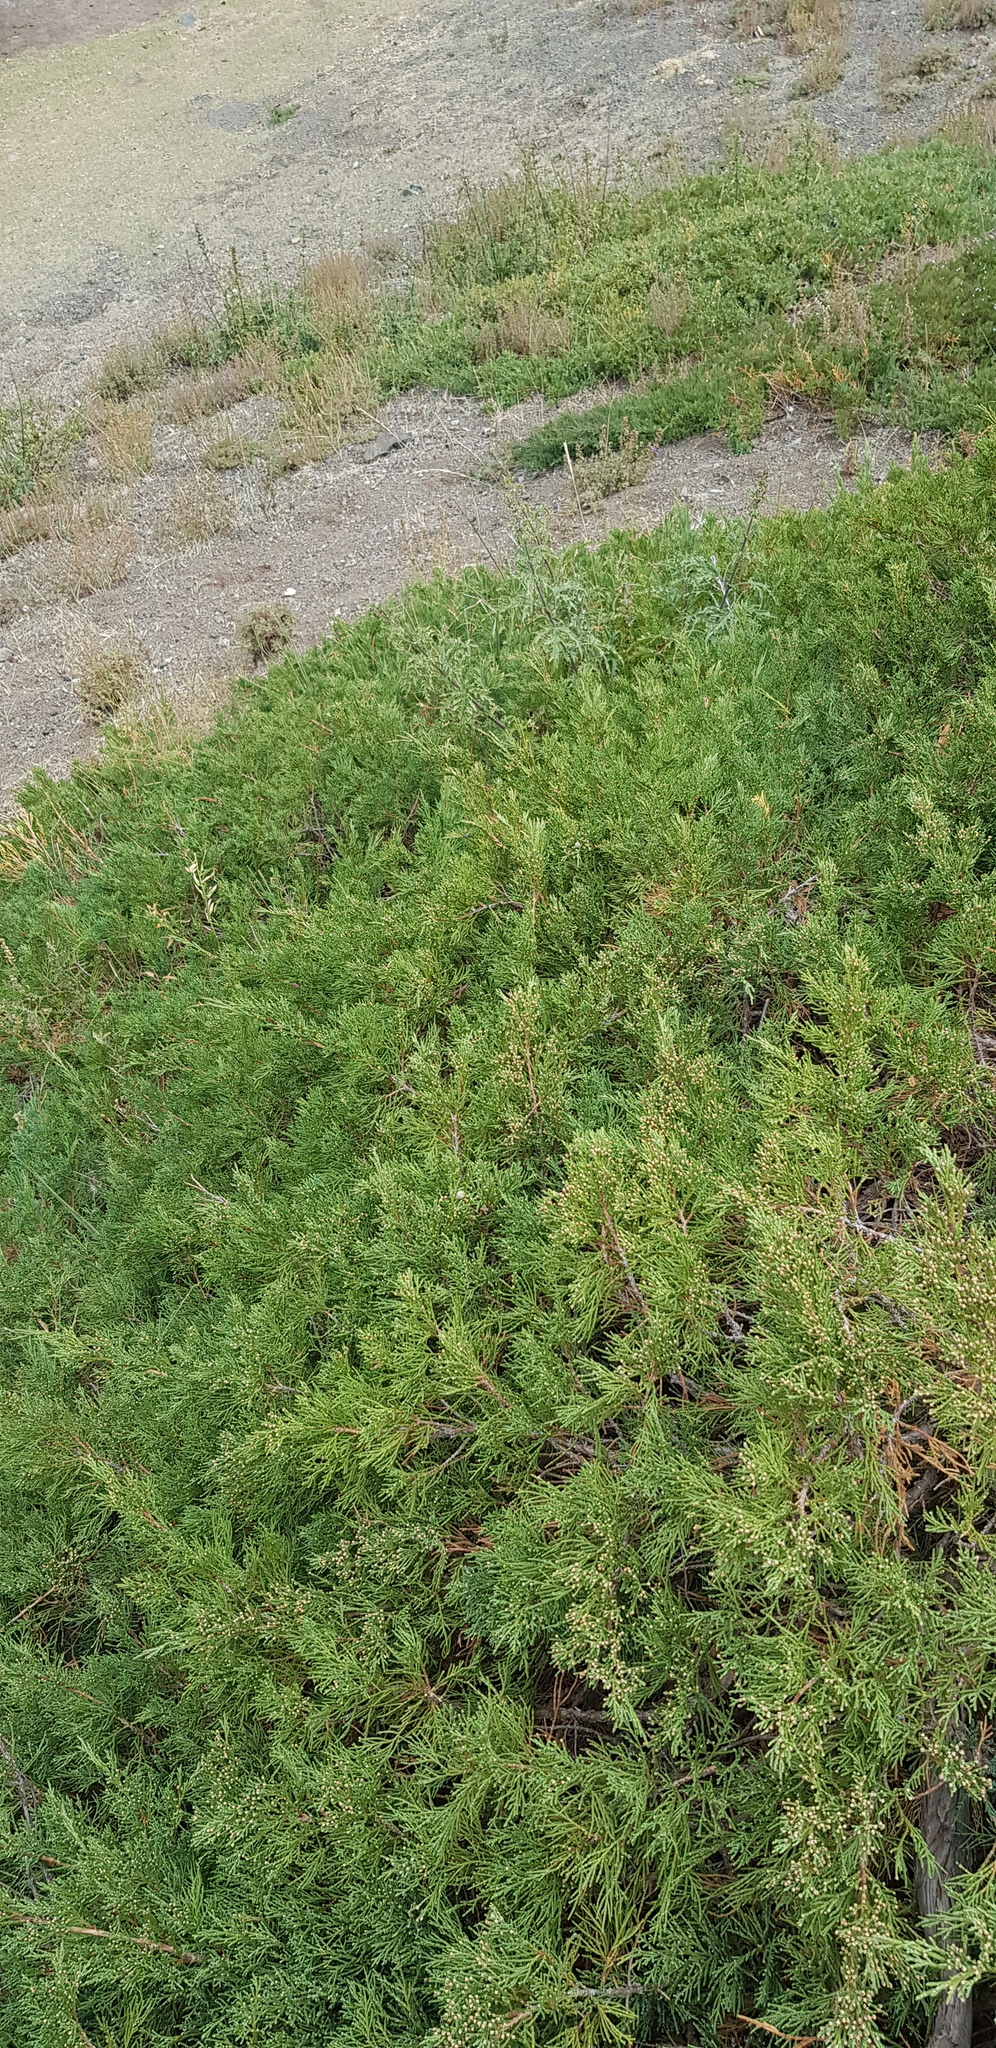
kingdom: Plantae
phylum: Tracheophyta
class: Pinopsida
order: Pinales
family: Cupressaceae
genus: Juniperus
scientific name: Juniperus sabina
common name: Savin
